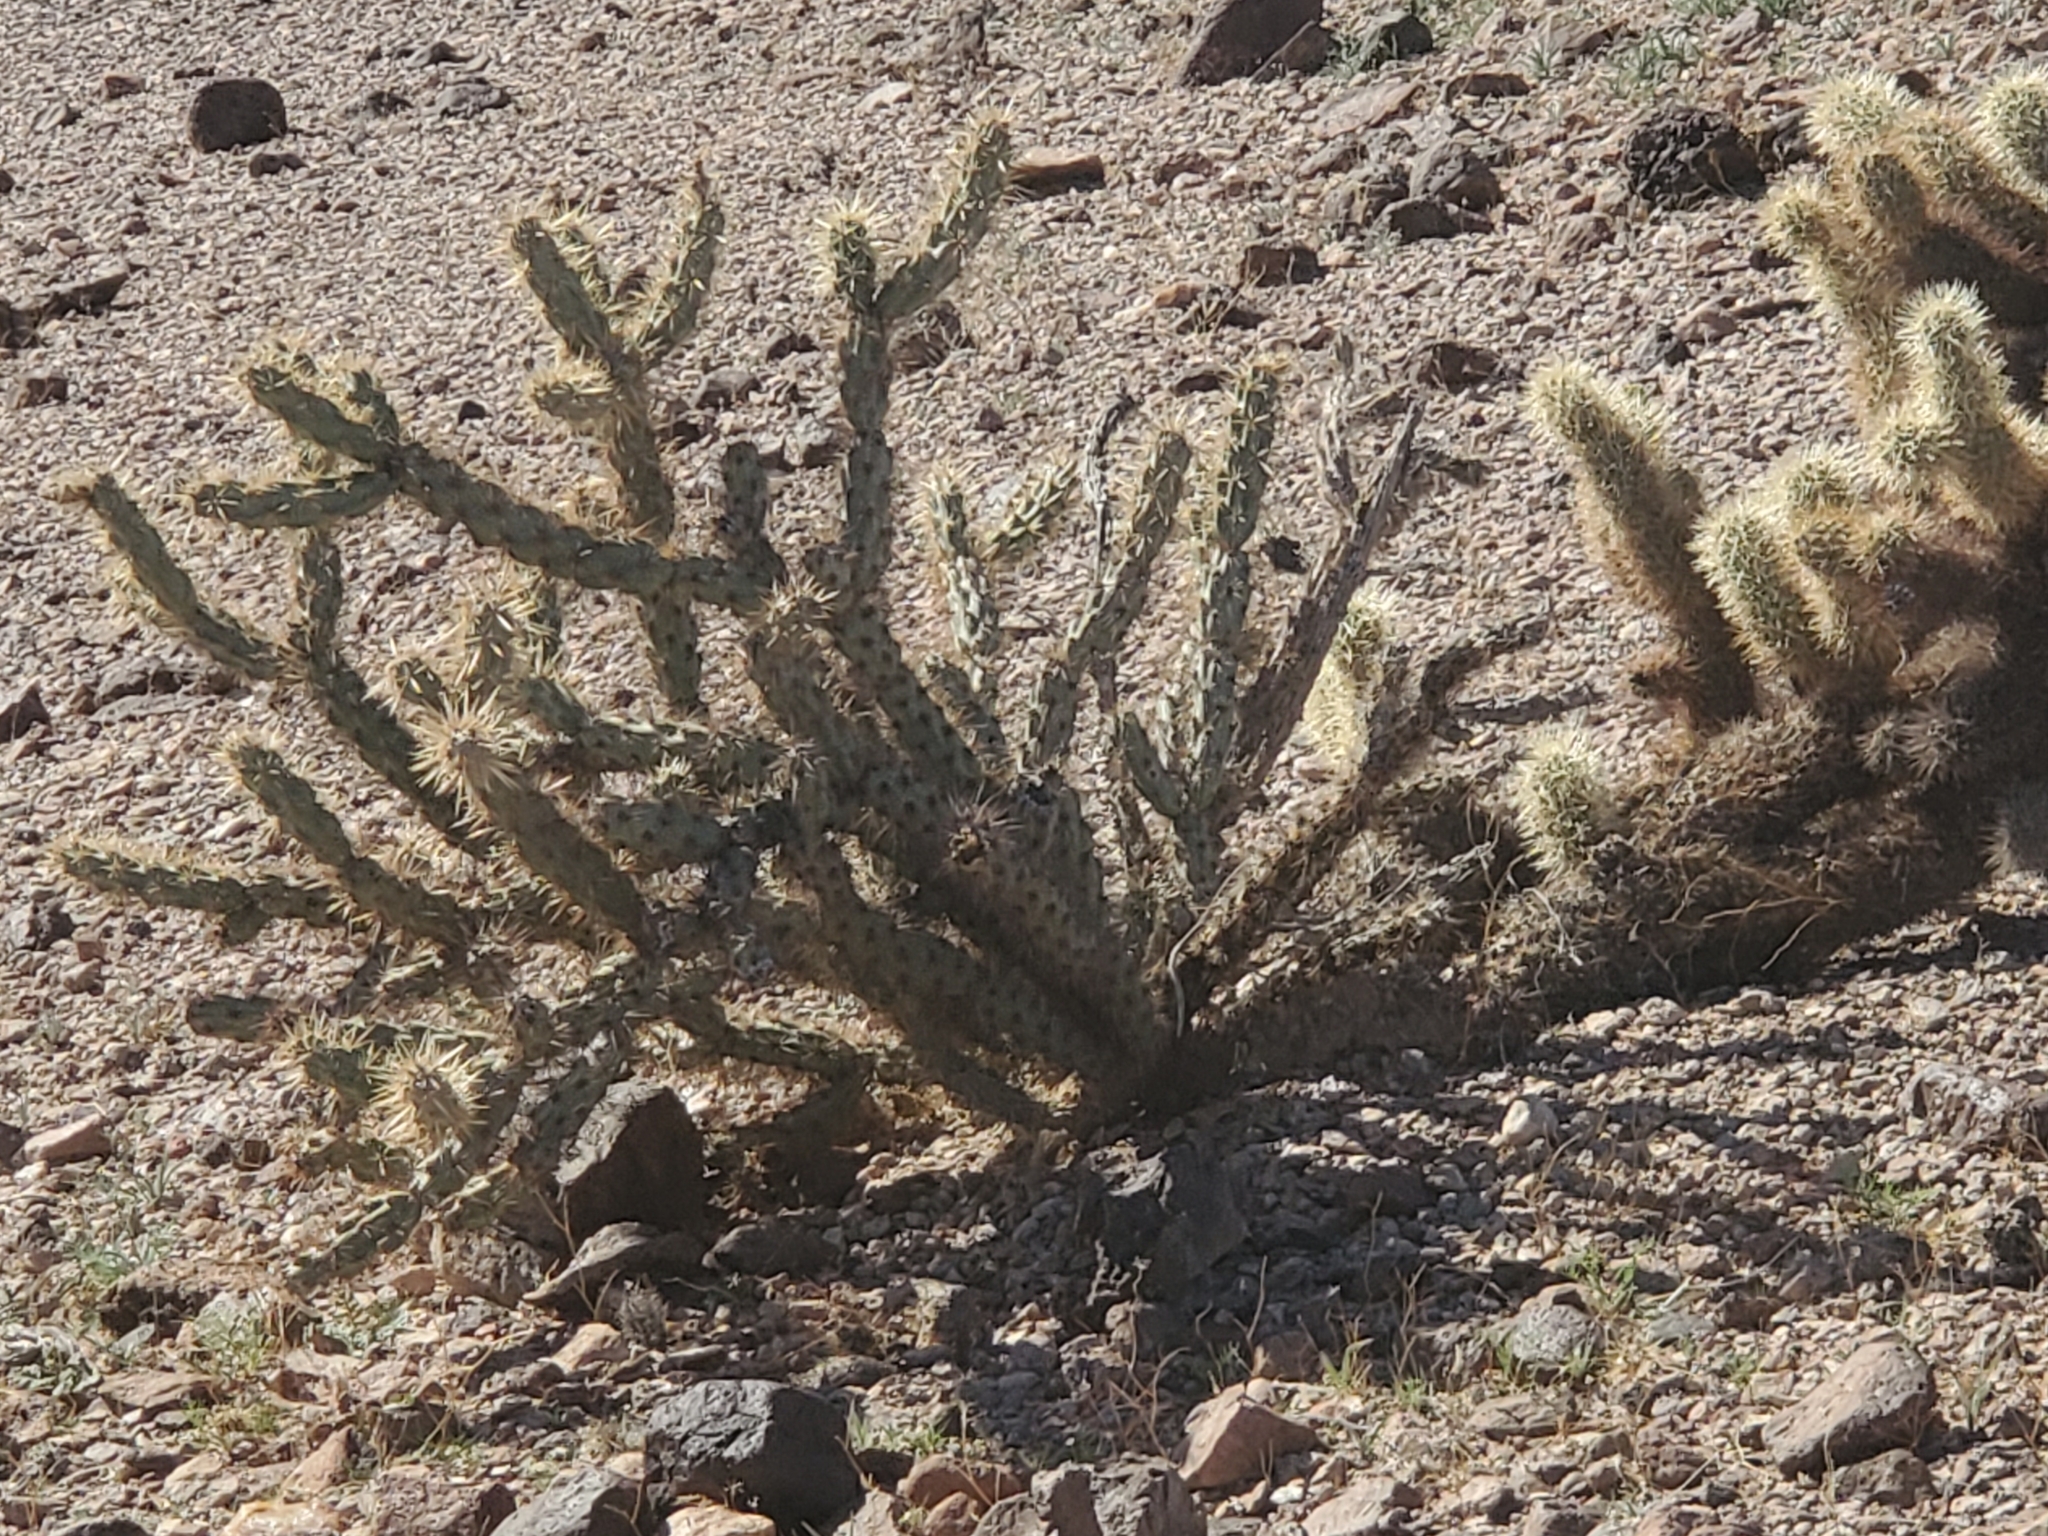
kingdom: Plantae
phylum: Tracheophyta
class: Magnoliopsida
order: Caryophyllales
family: Cactaceae
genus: Cylindropuntia
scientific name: Cylindropuntia acanthocarpa
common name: Buckhorn cholla
